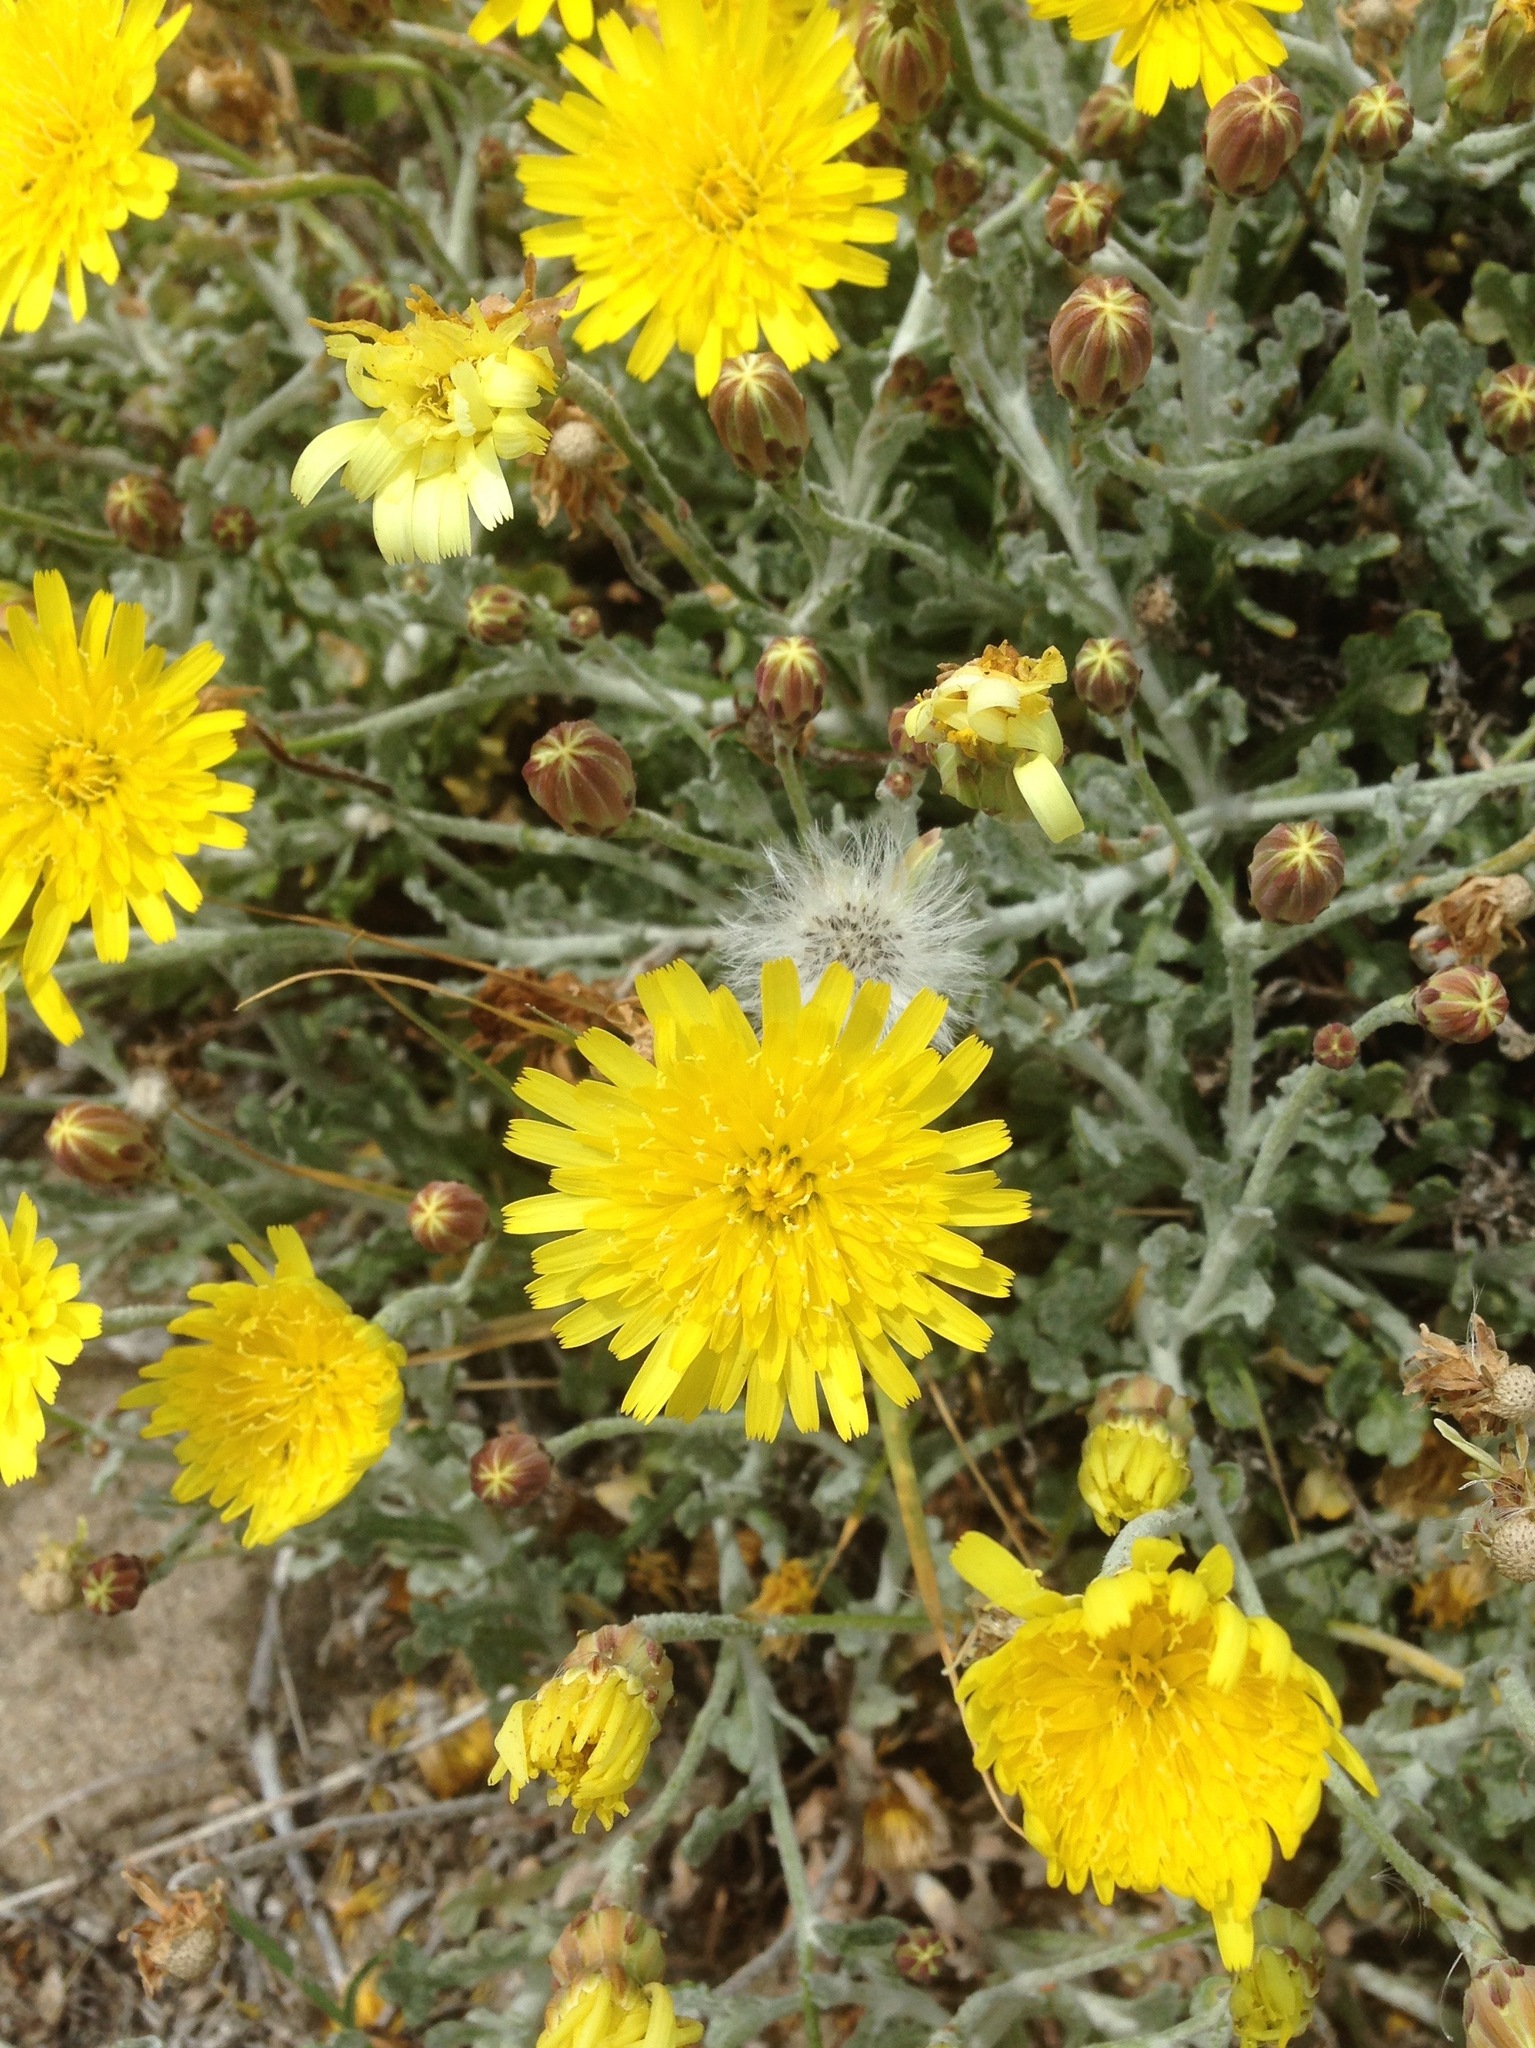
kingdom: Plantae
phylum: Tracheophyta
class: Magnoliopsida
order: Asterales
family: Asteraceae
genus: Malacothrix
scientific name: Malacothrix incana
